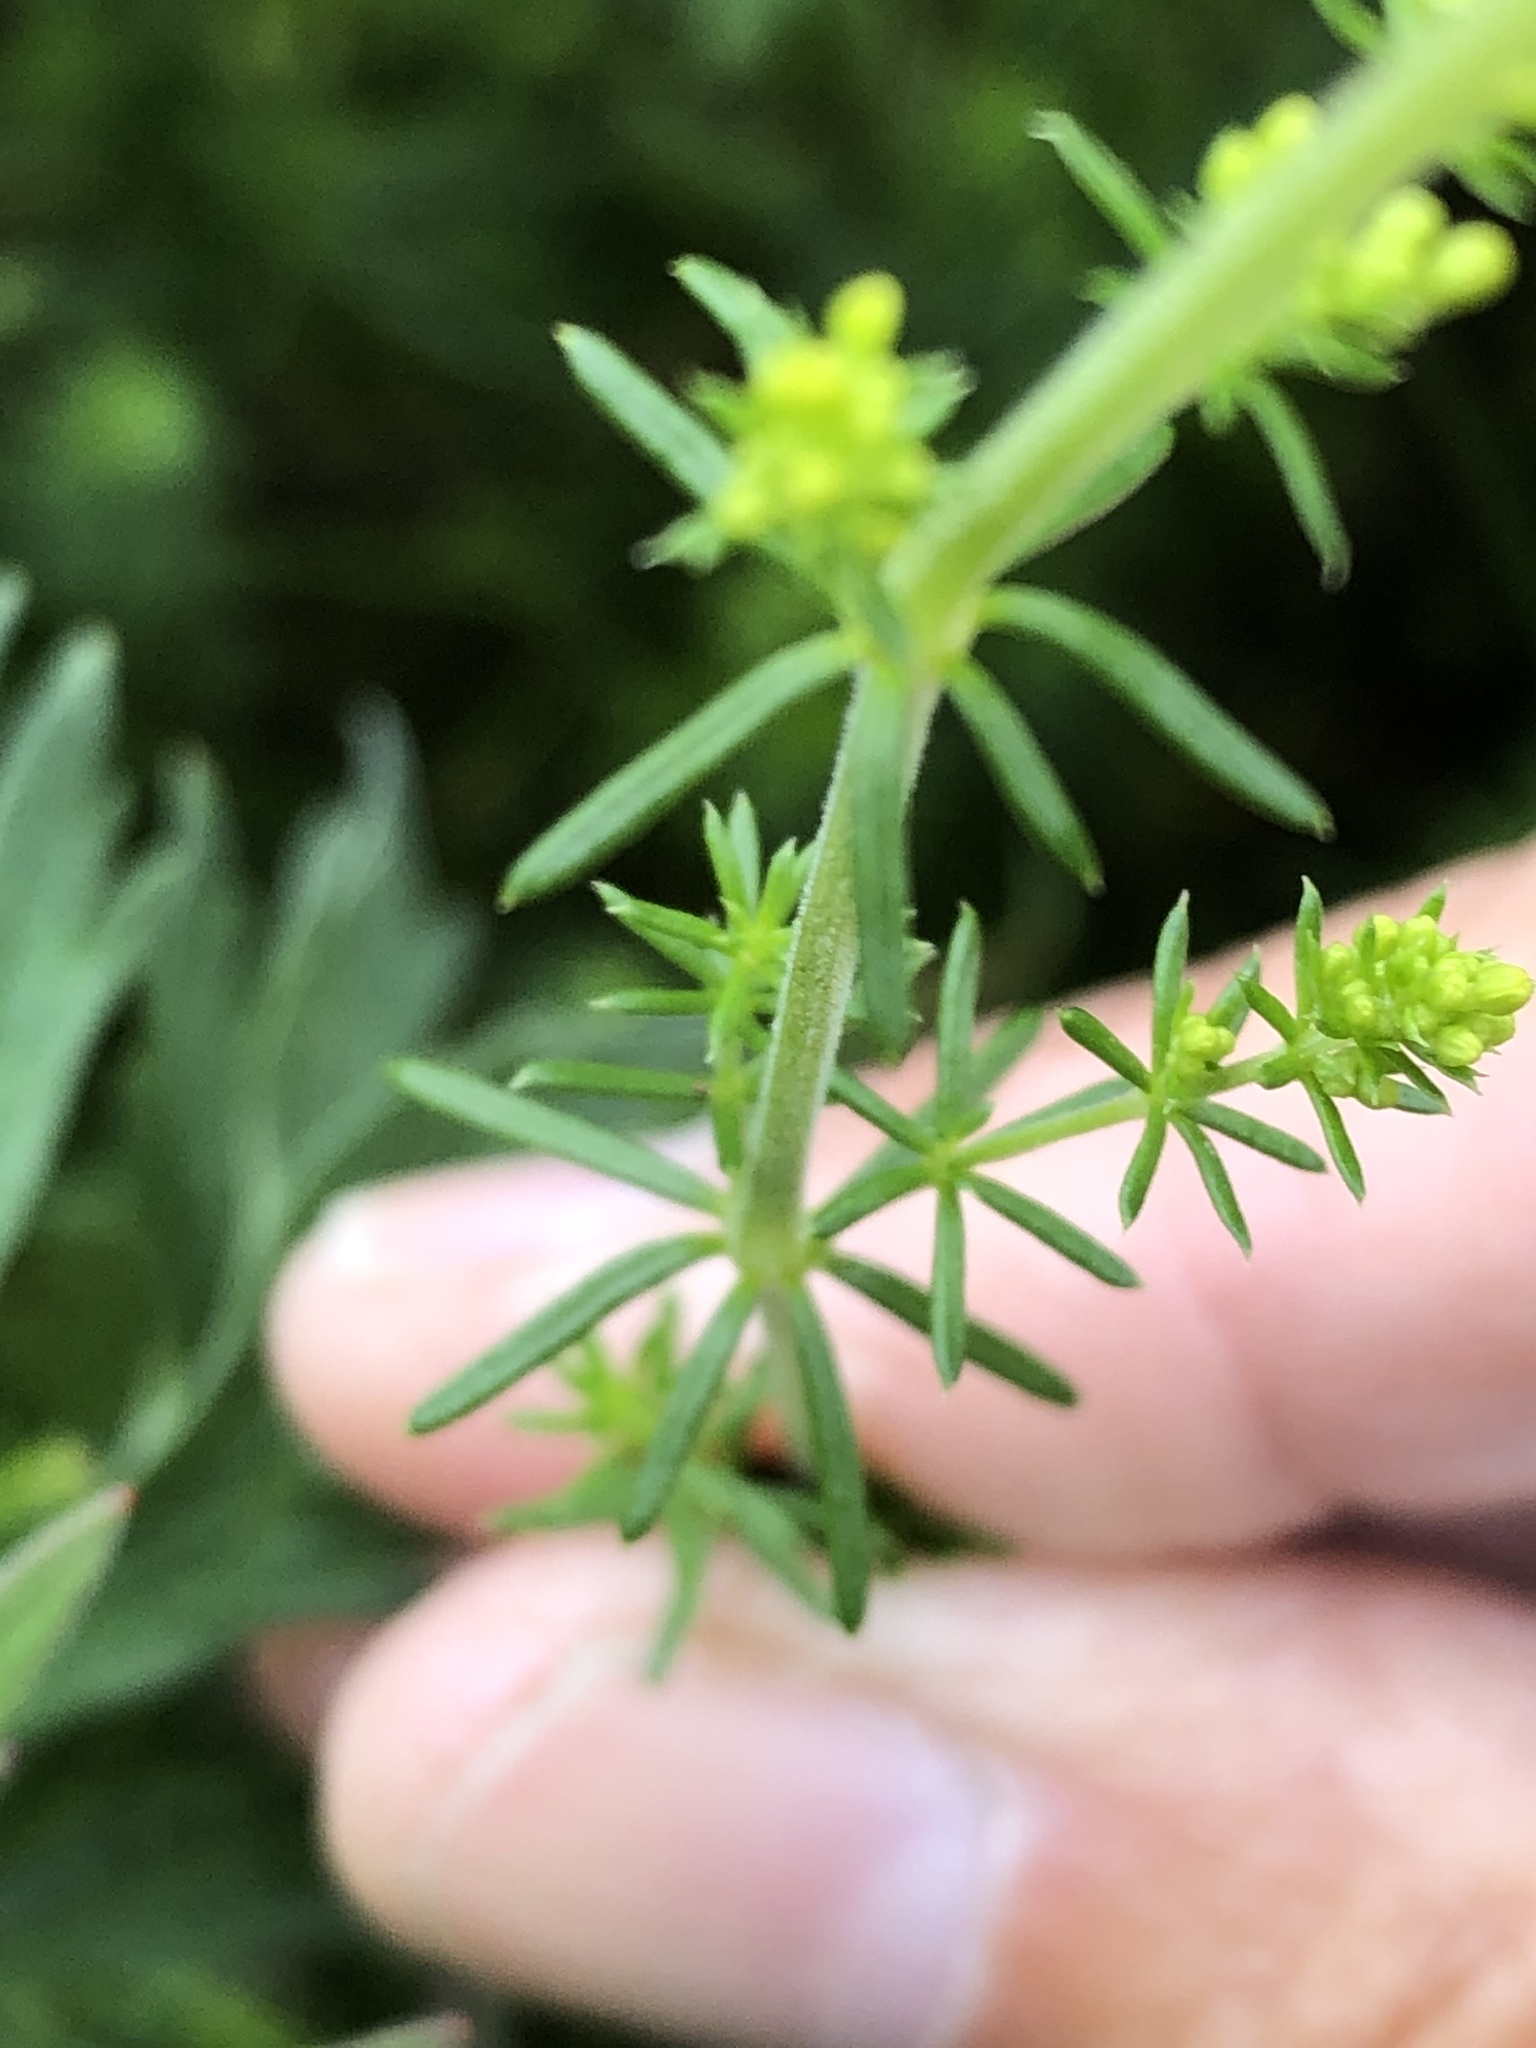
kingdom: Plantae
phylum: Tracheophyta
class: Magnoliopsida
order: Gentianales
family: Rubiaceae
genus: Galium
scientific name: Galium verum
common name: Lady's bedstraw
